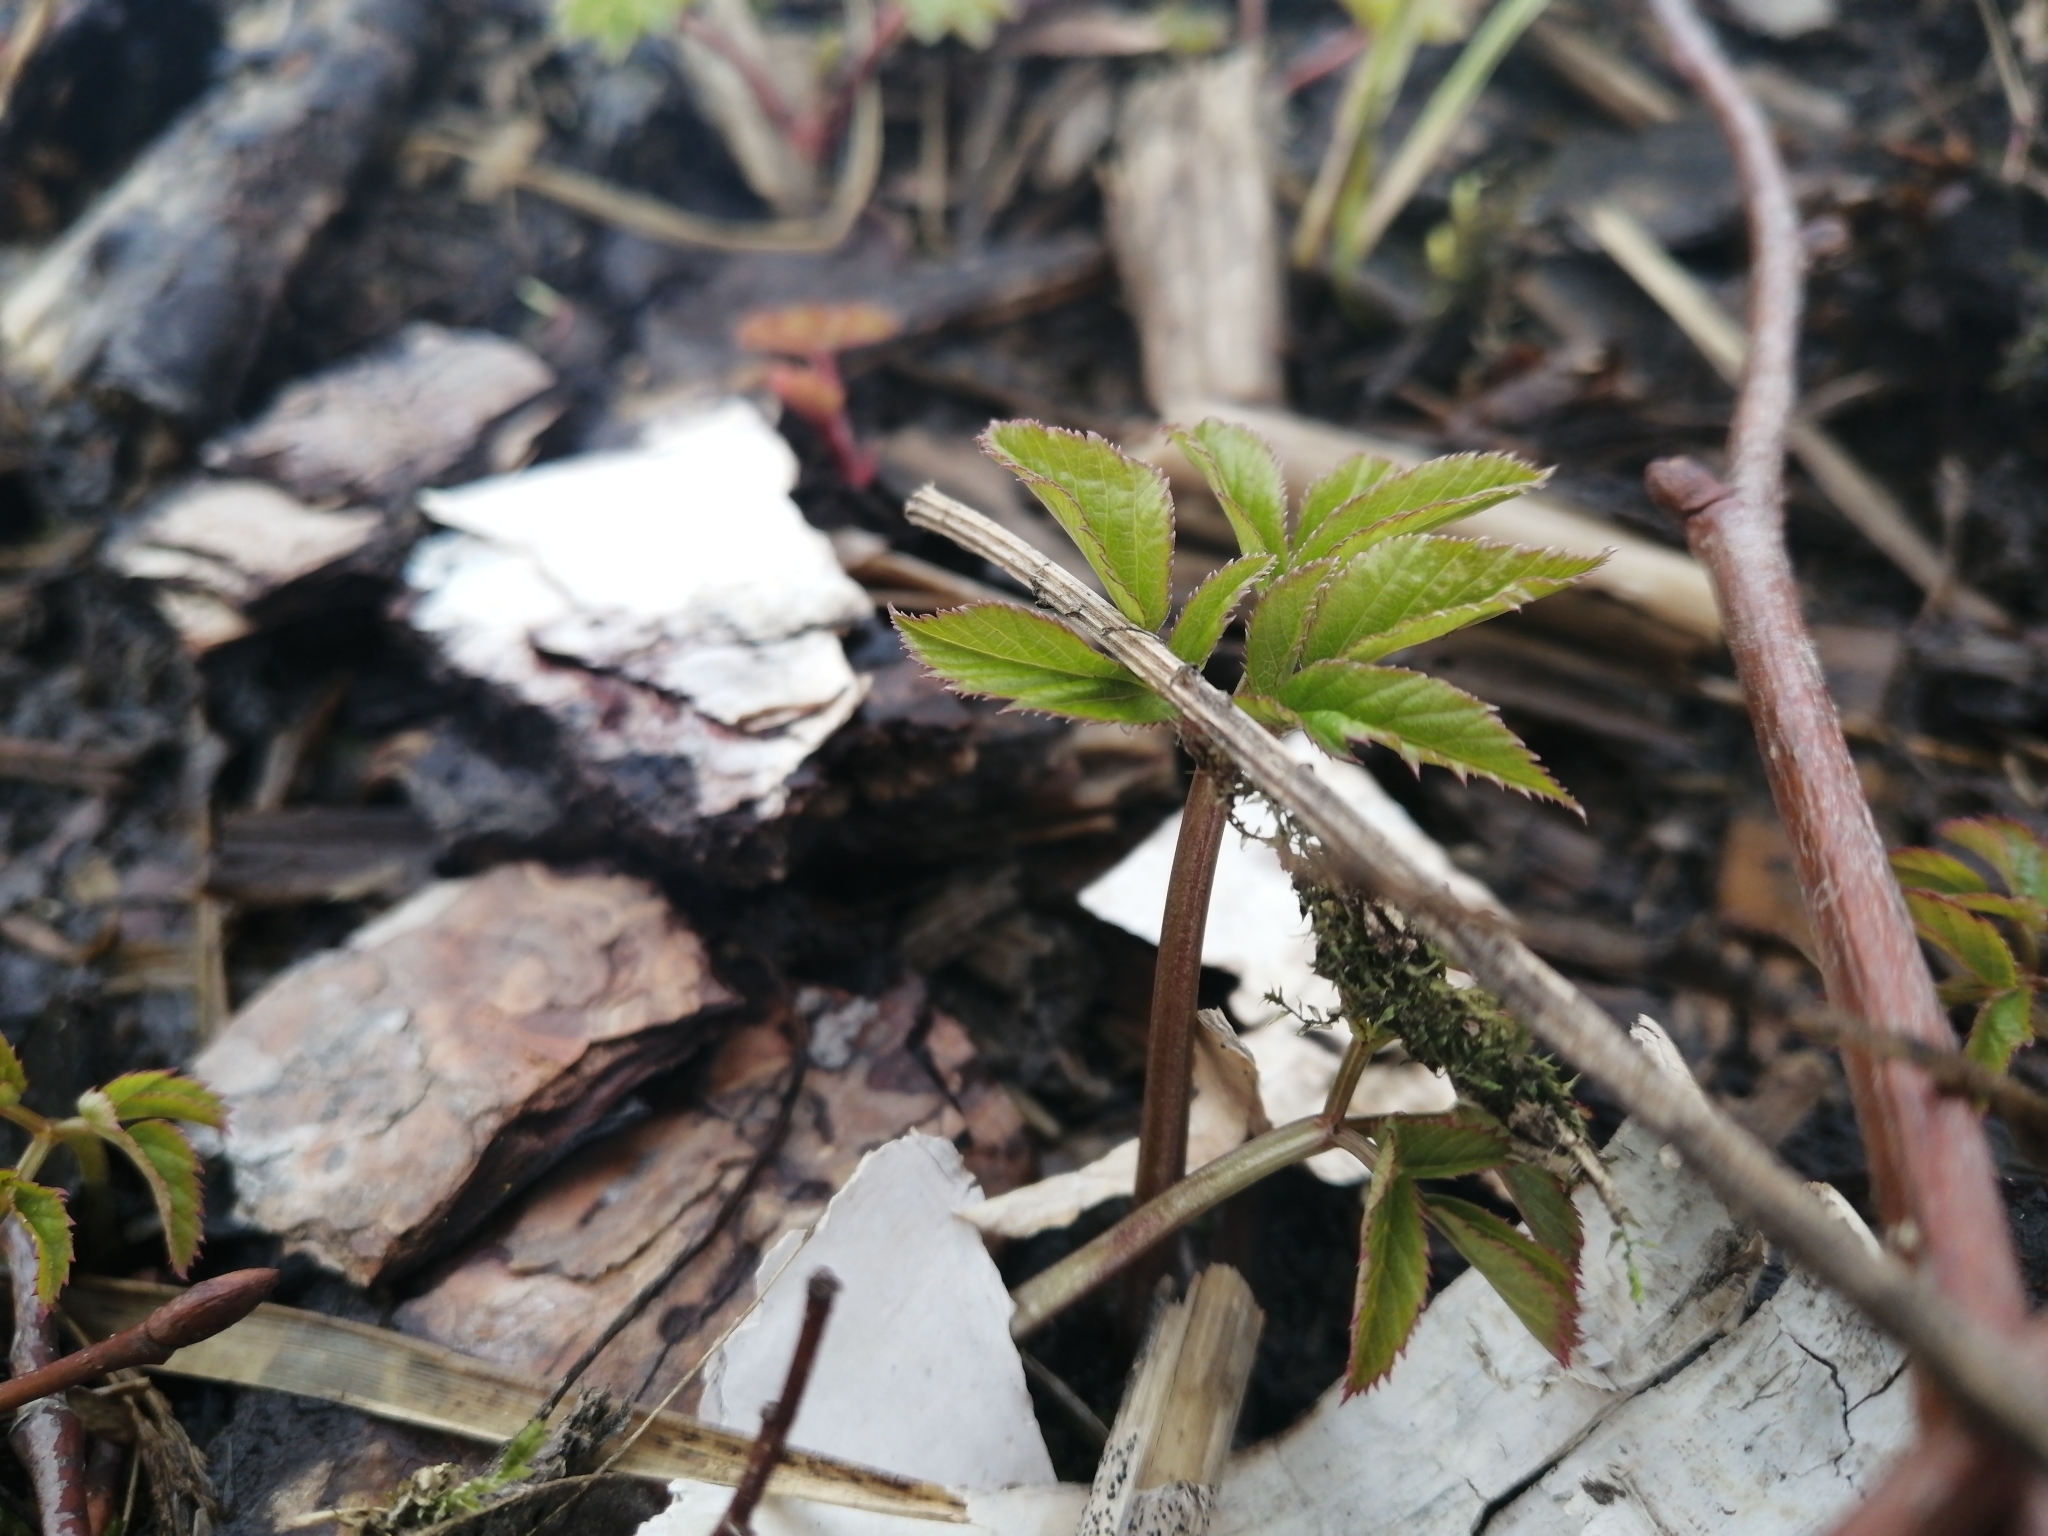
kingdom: Plantae
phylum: Tracheophyta
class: Magnoliopsida
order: Apiales
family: Apiaceae
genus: Aegopodium
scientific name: Aegopodium podagraria
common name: Ground-elder
